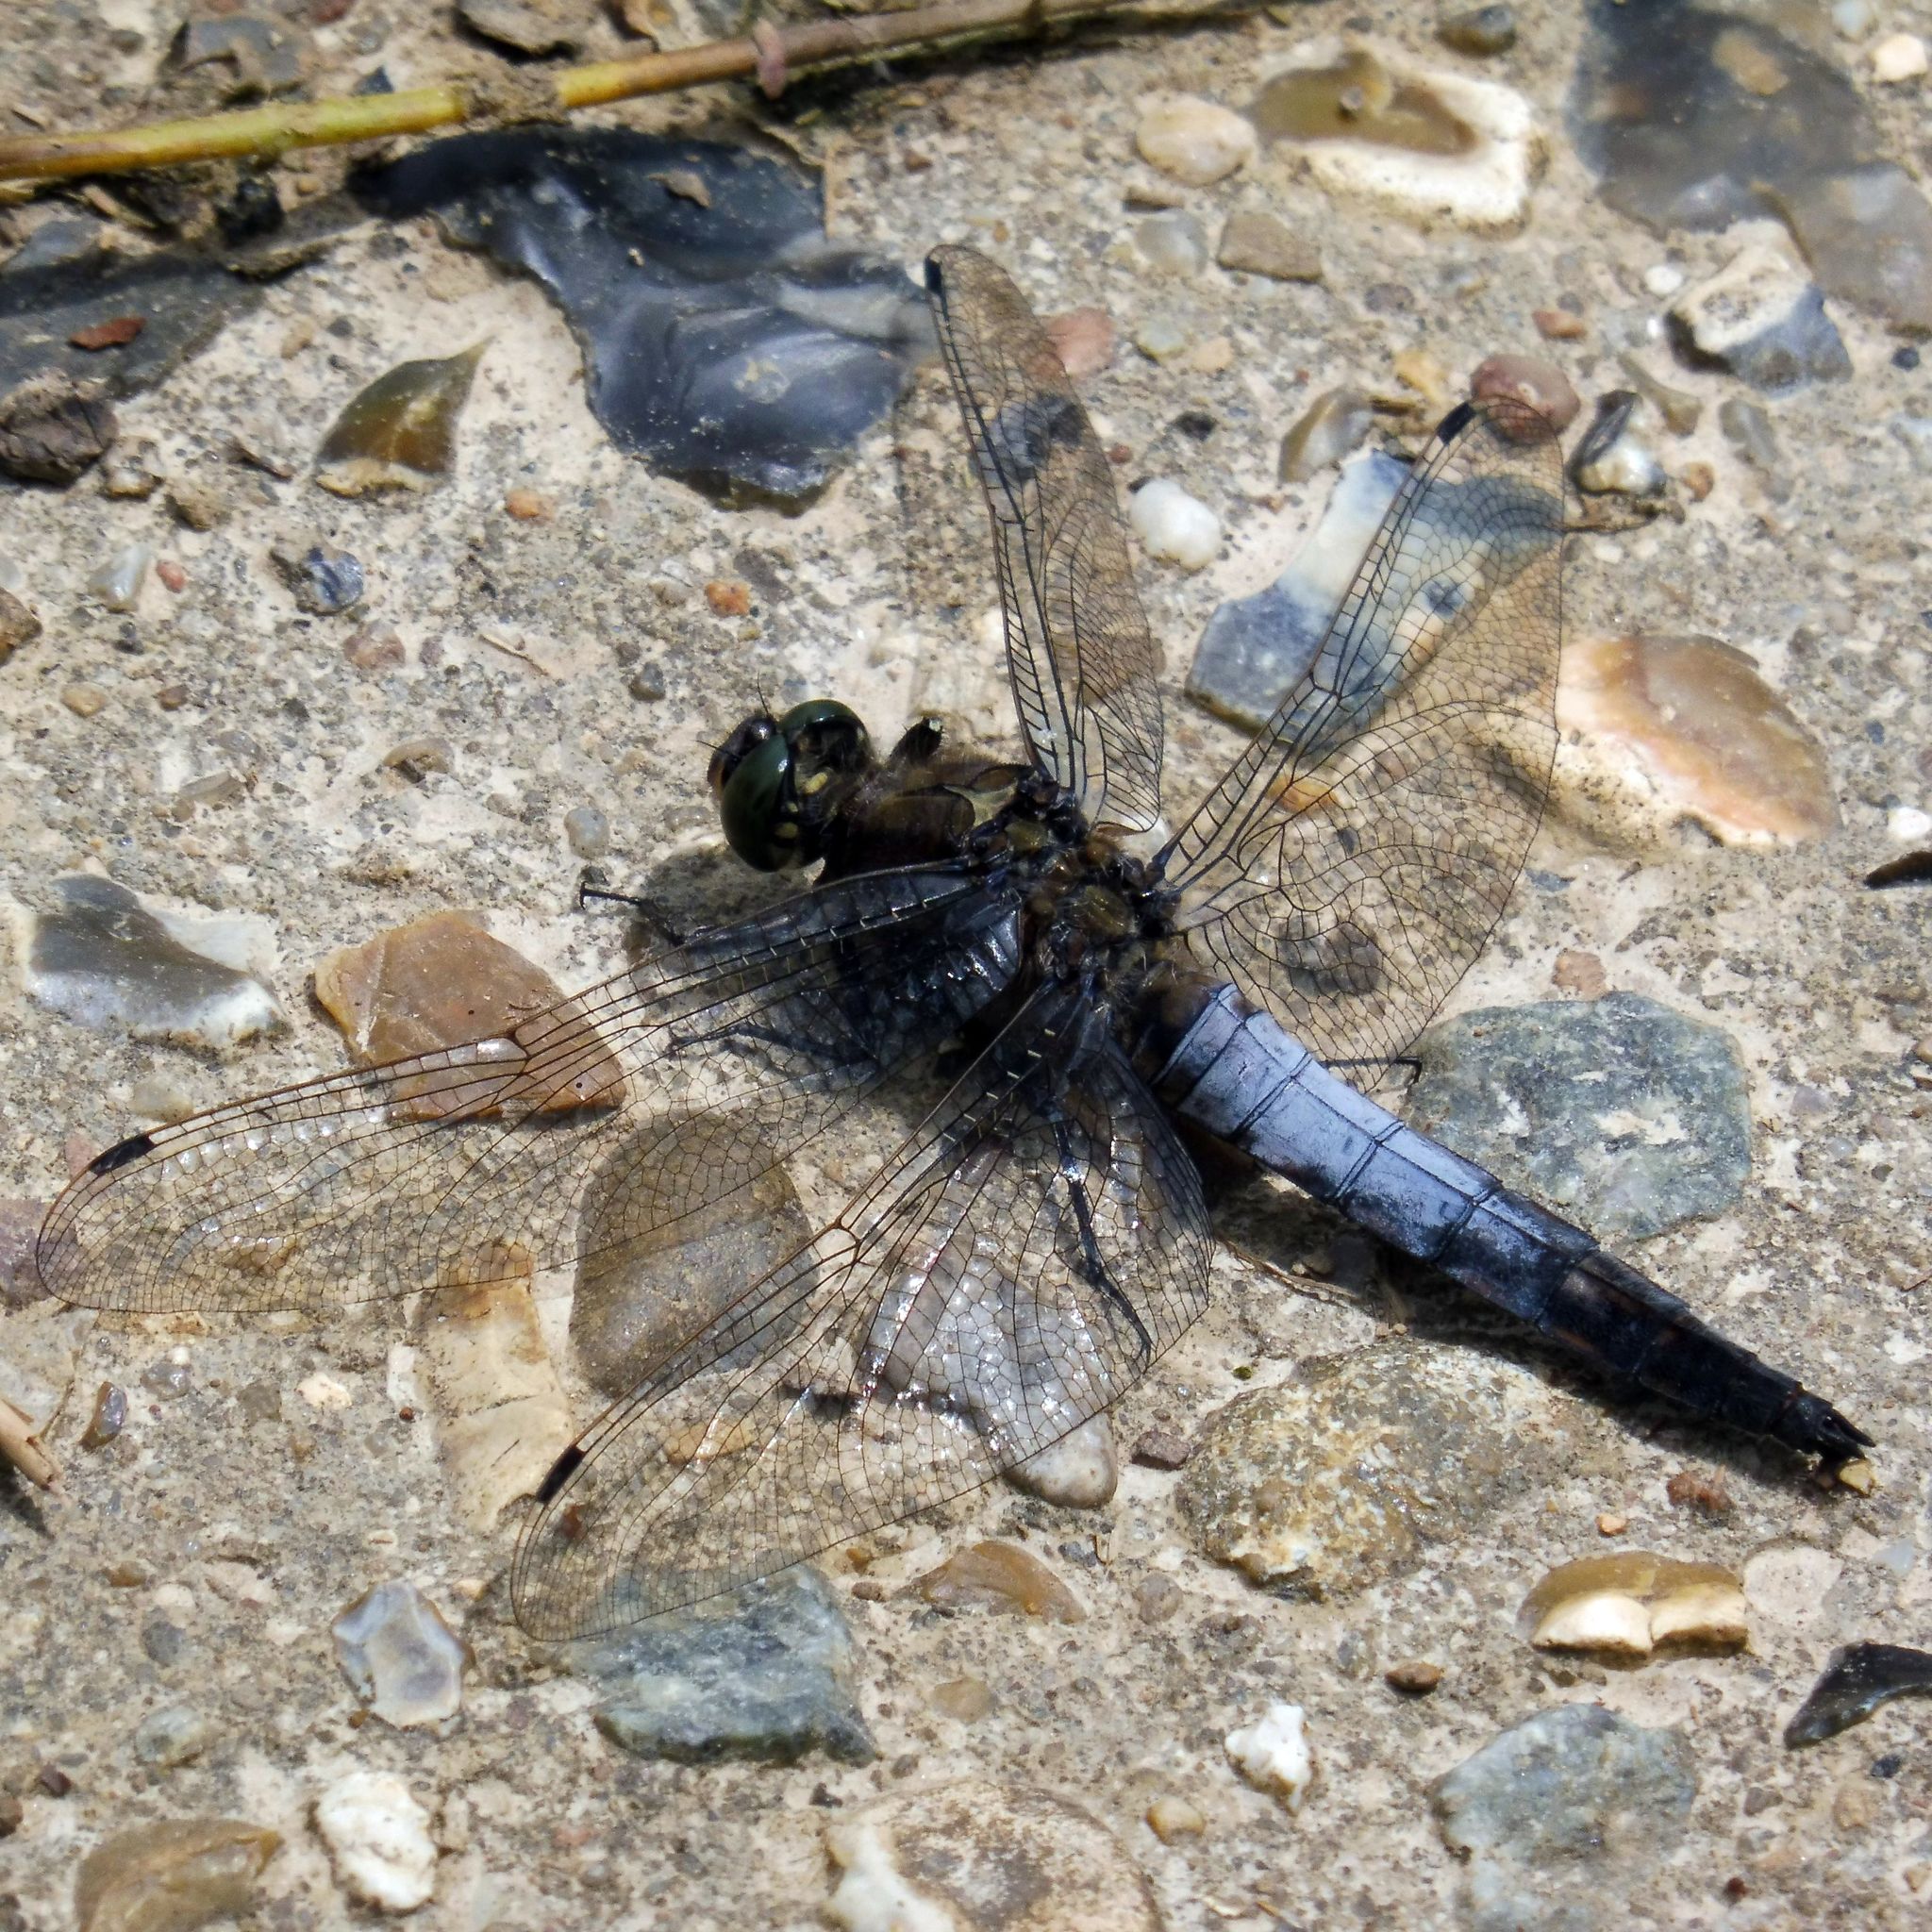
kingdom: Animalia
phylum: Arthropoda
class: Insecta
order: Odonata
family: Libellulidae
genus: Orthetrum
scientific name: Orthetrum cancellatum
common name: Black-tailed skimmer
